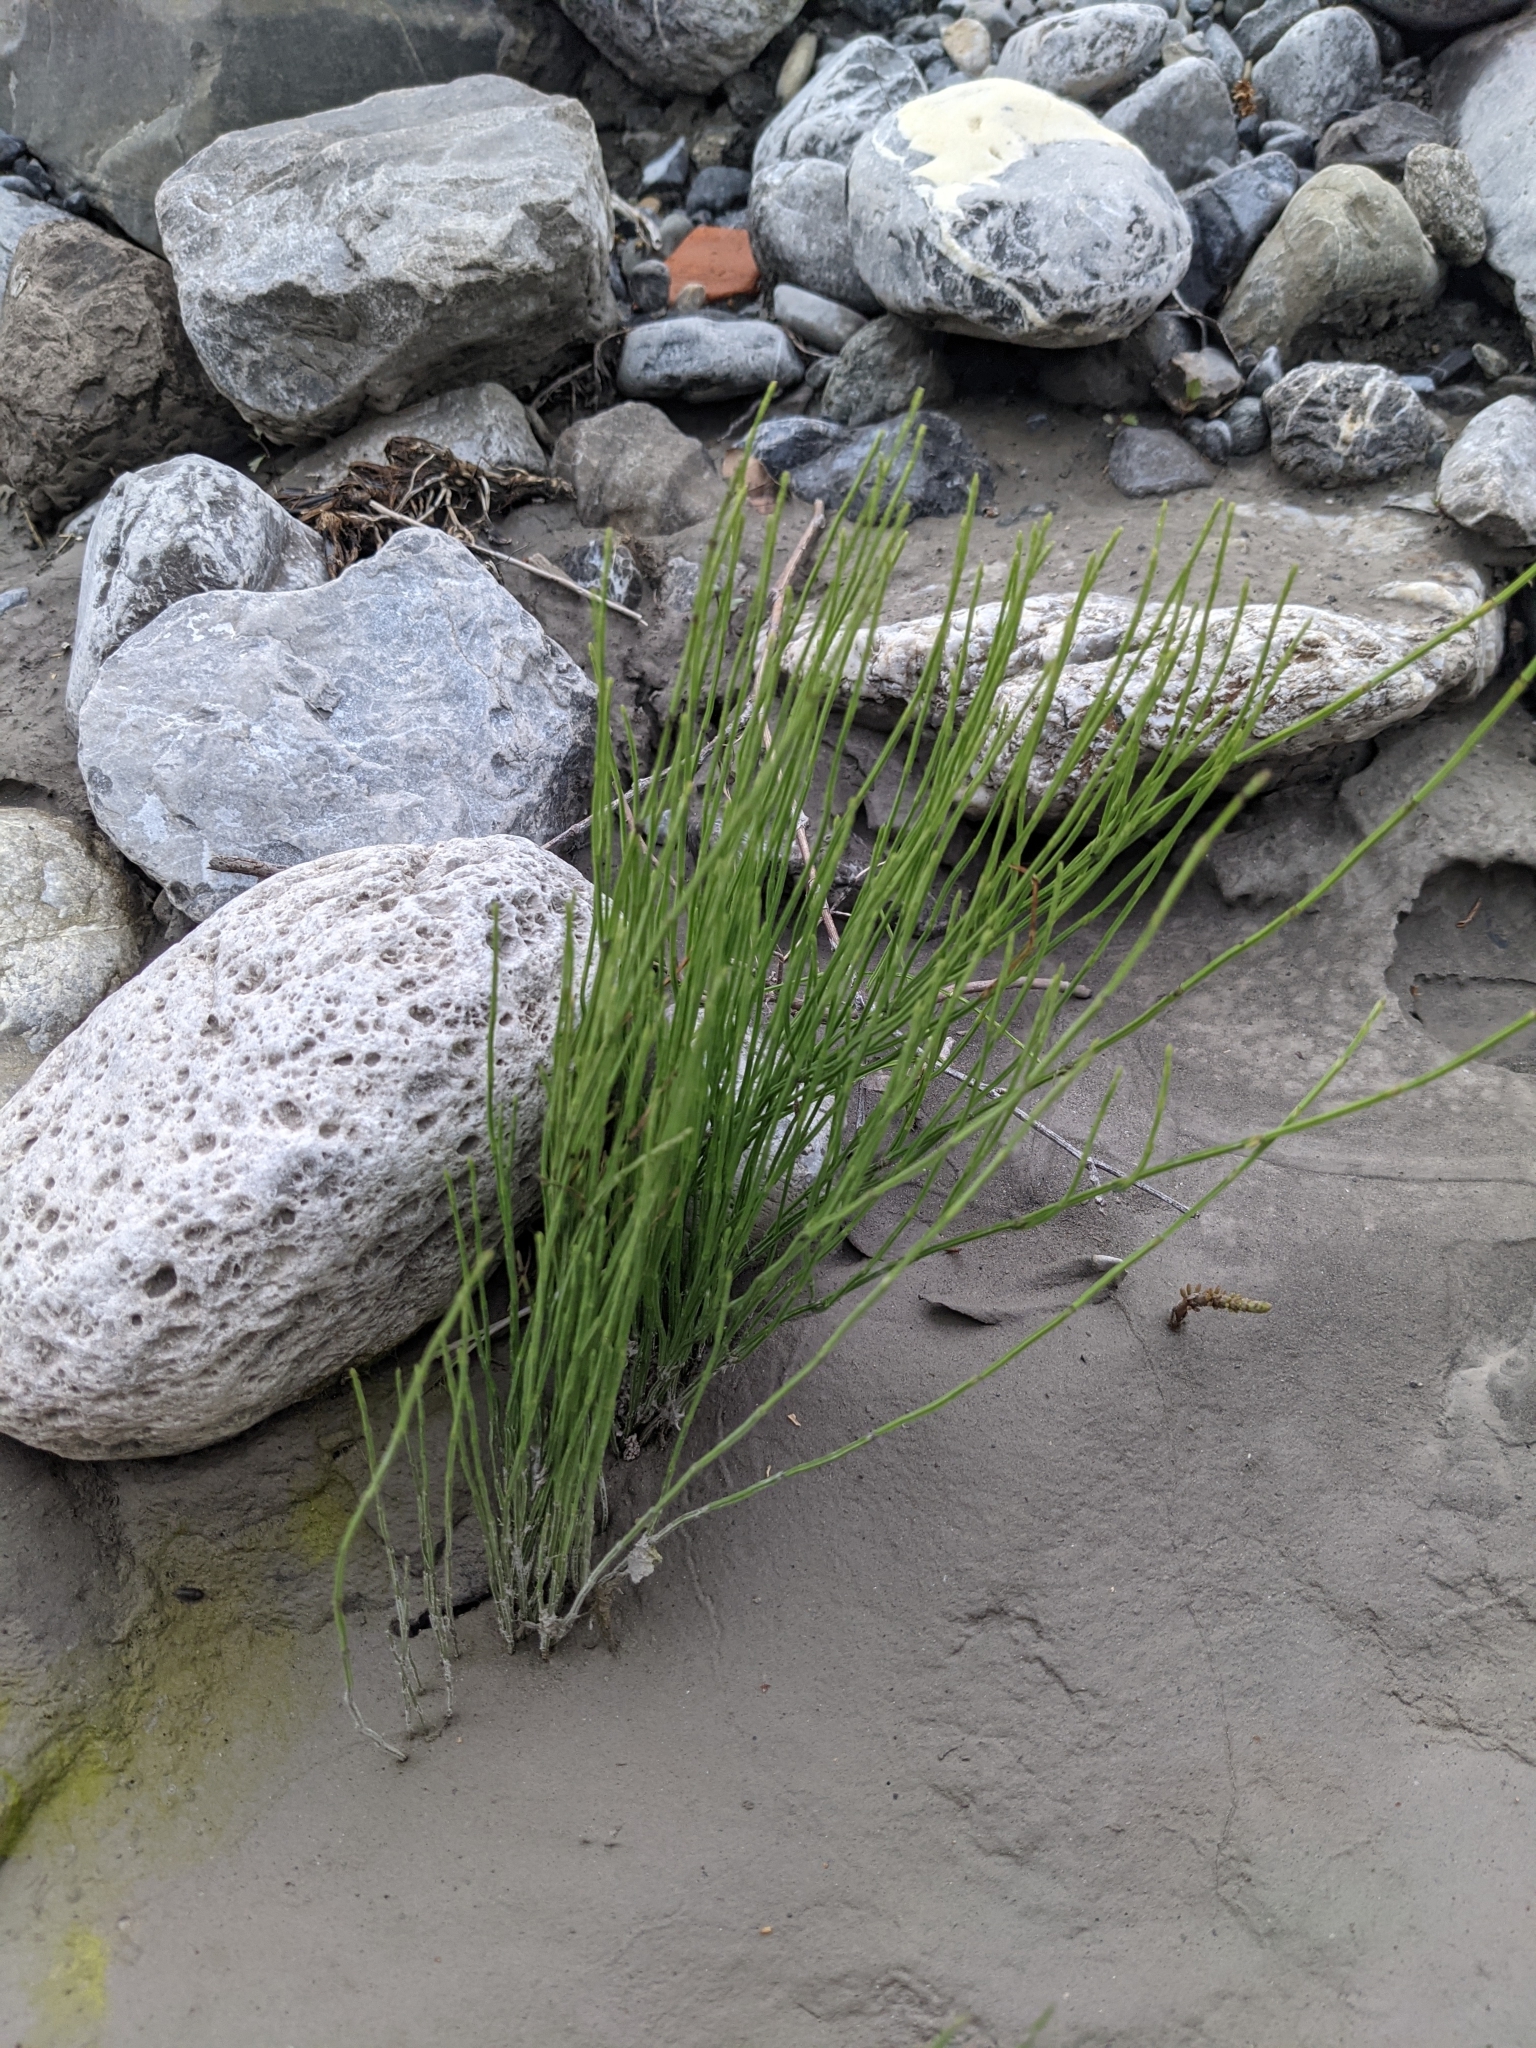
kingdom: Plantae
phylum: Tracheophyta
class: Polypodiopsida
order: Equisetales
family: Equisetaceae
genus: Equisetum
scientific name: Equisetum arvense
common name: Field horsetail
